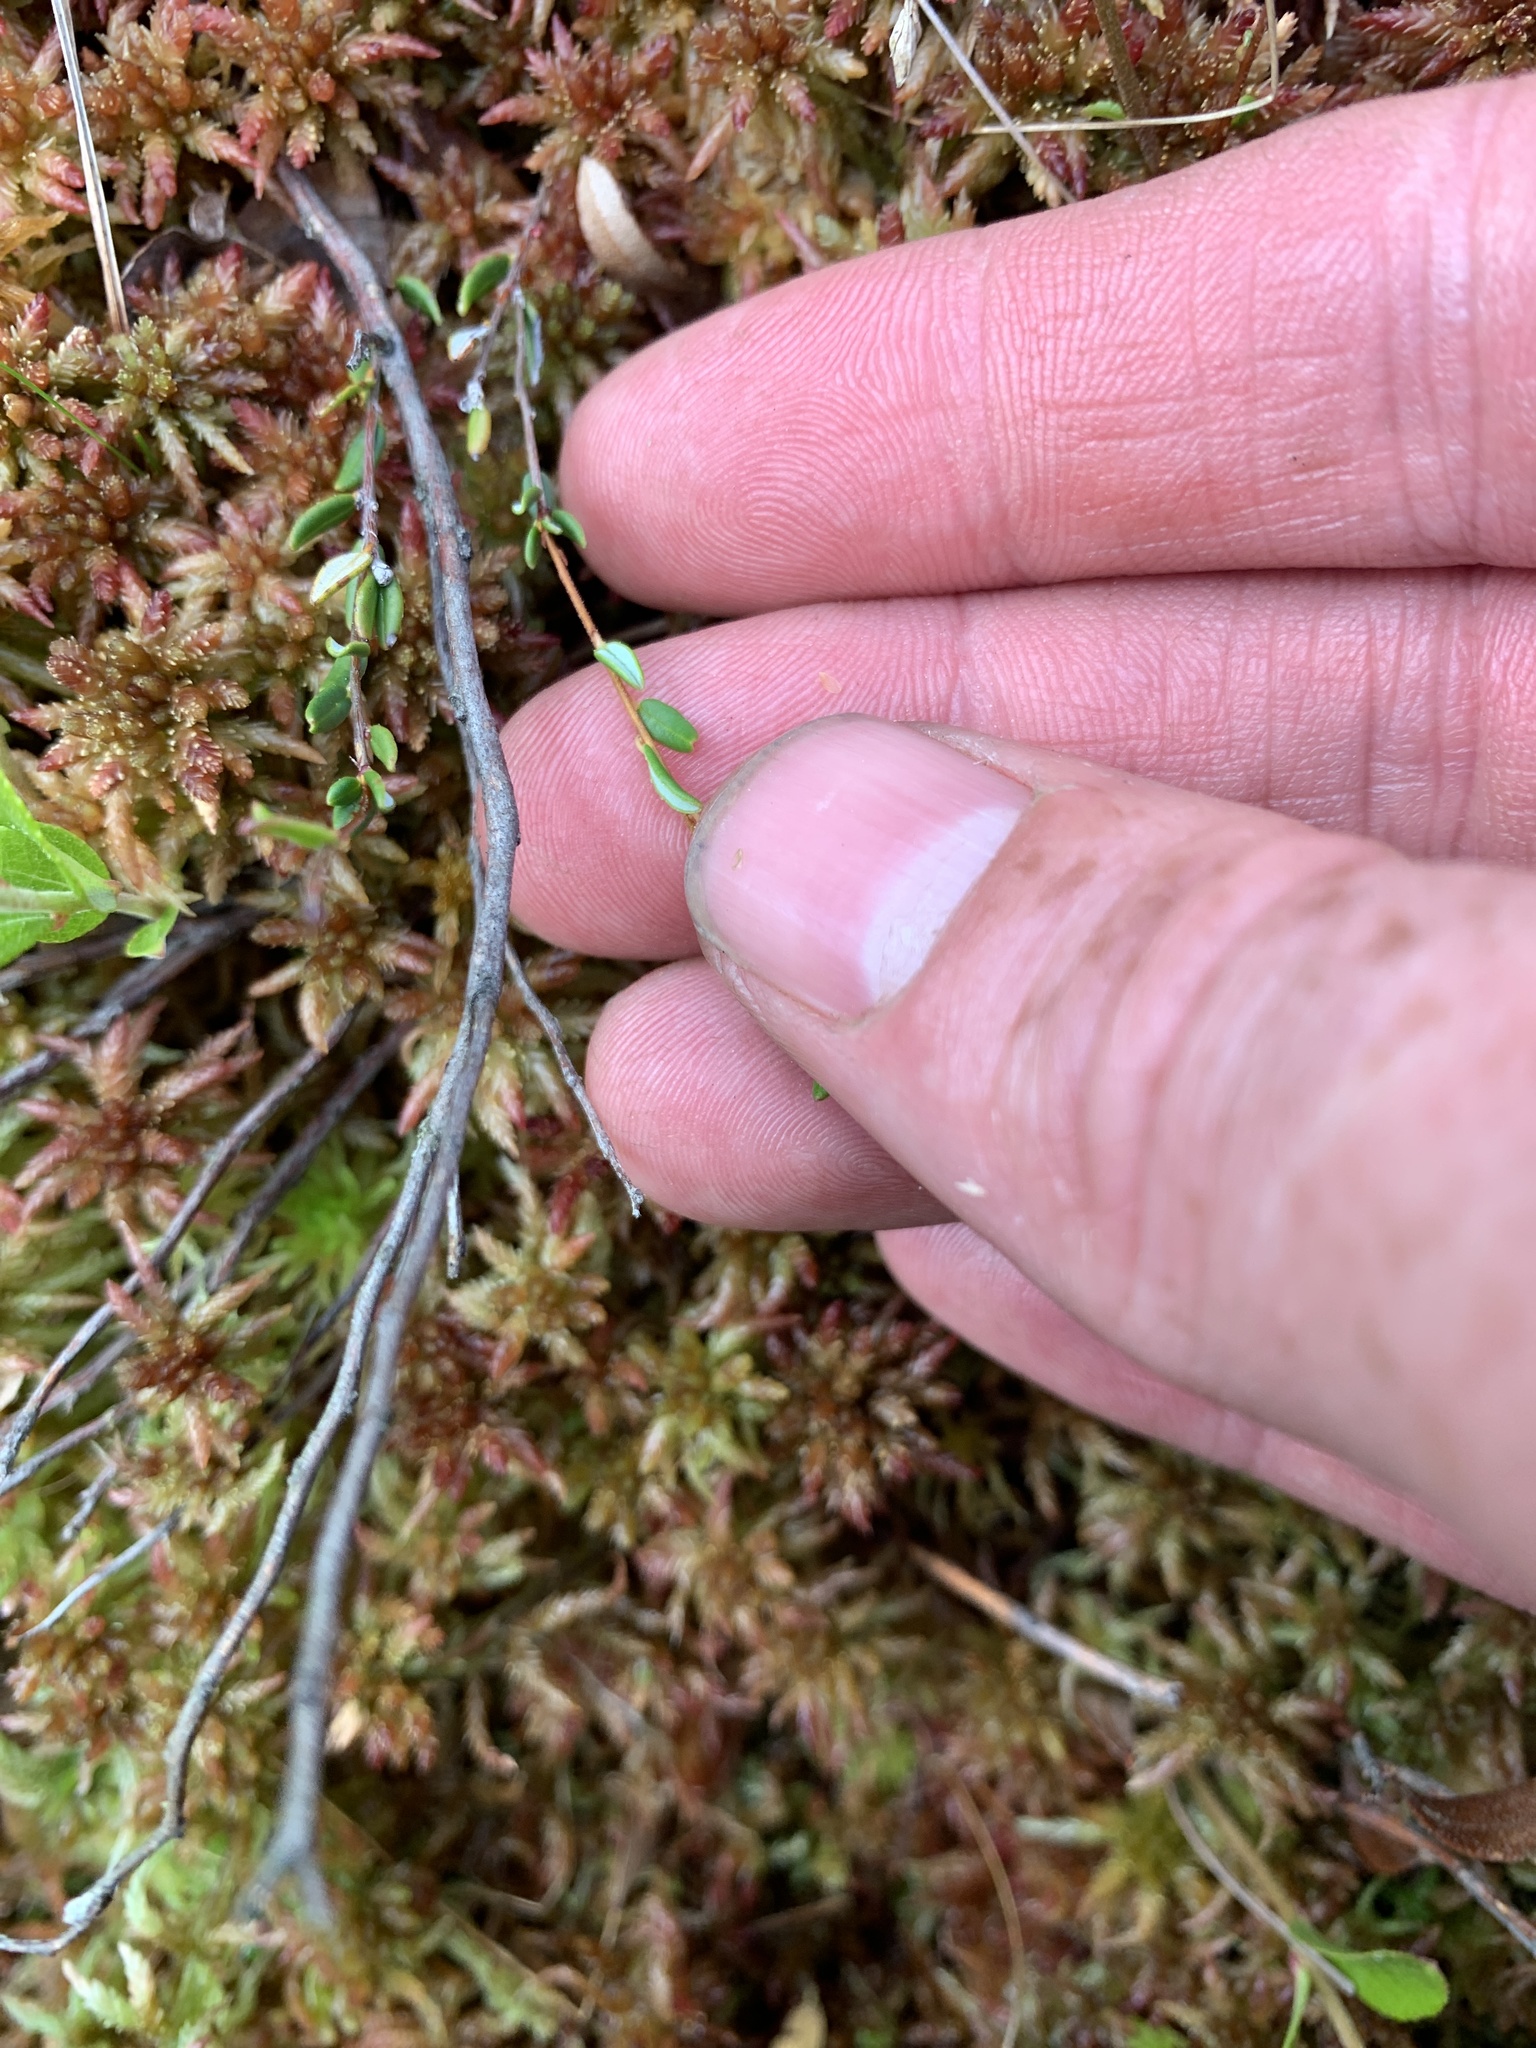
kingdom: Plantae
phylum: Tracheophyta
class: Magnoliopsida
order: Ericales
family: Ericaceae
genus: Vaccinium
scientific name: Vaccinium oxycoccos
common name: Cranberry
